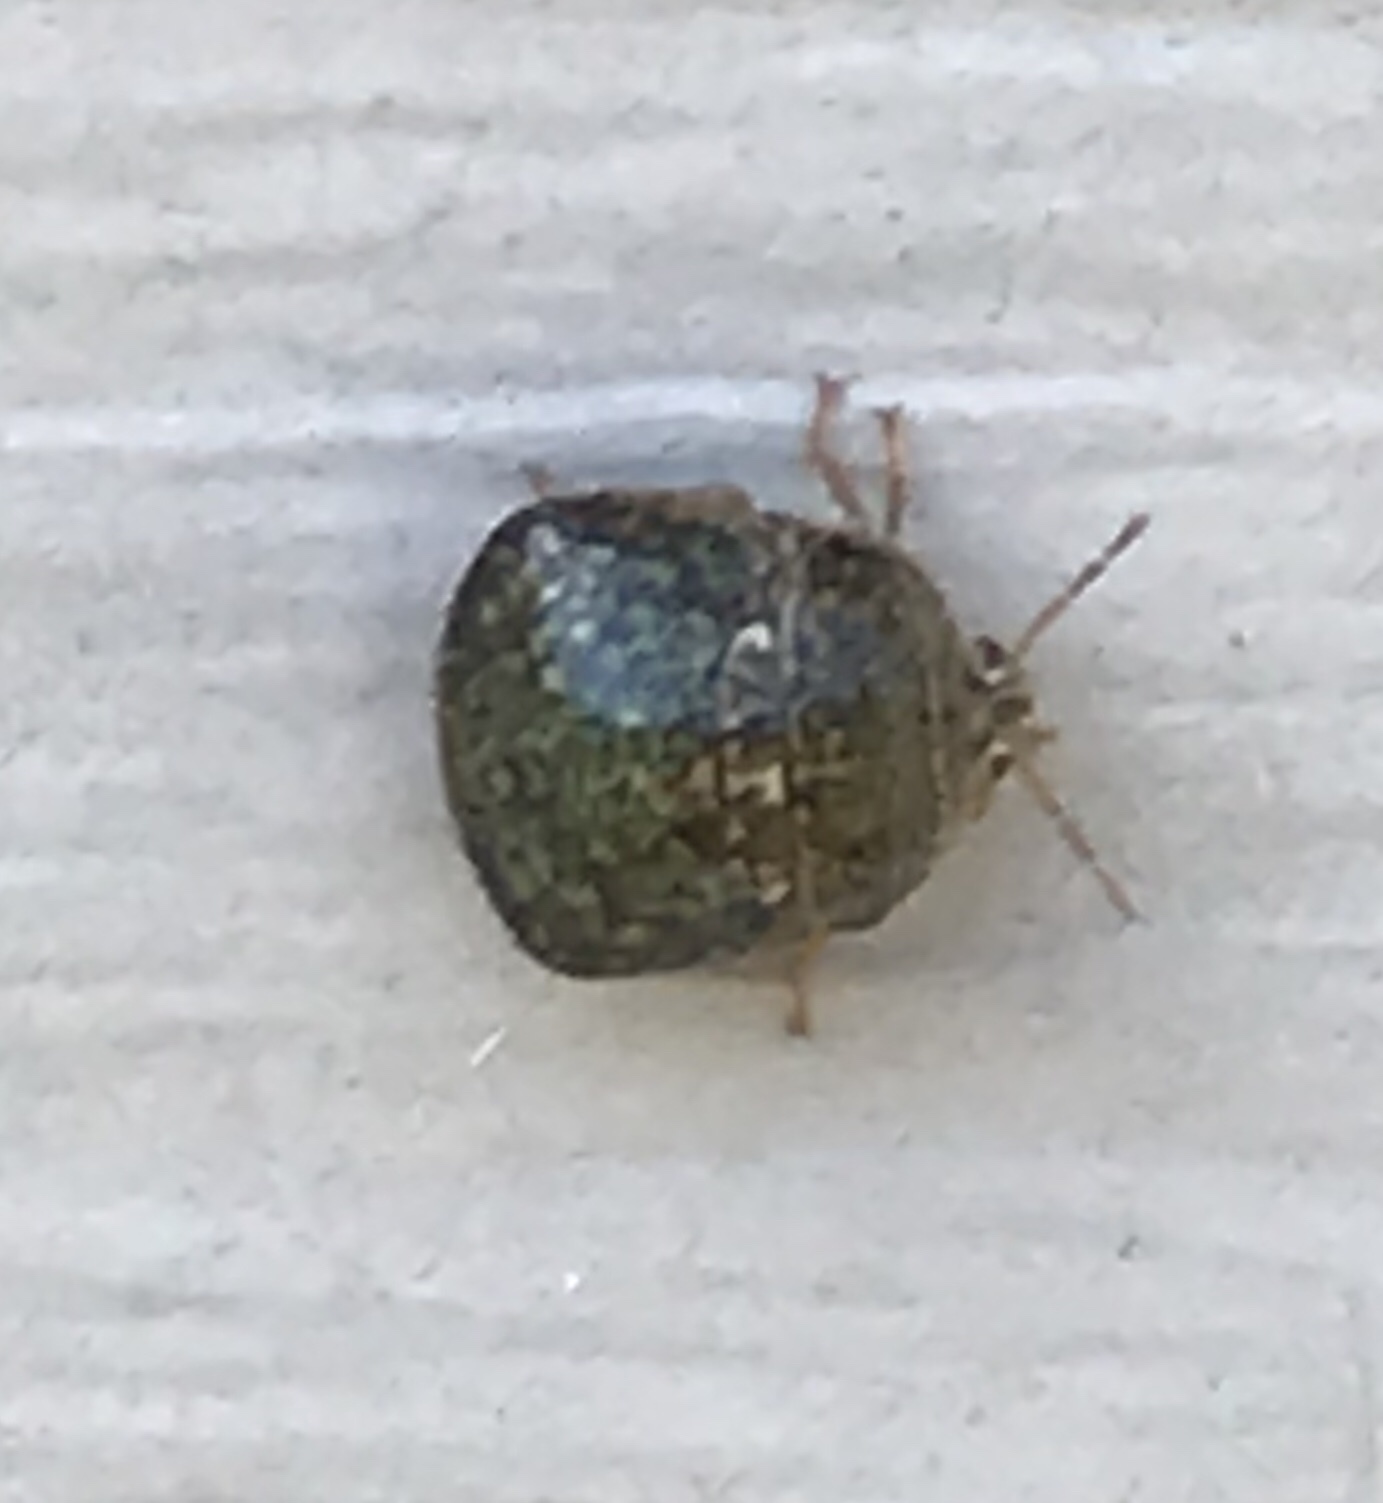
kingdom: Animalia
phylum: Arthropoda
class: Insecta
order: Hemiptera
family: Plataspidae
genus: Megacopta
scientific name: Megacopta cribraria
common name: Bean plataspid
